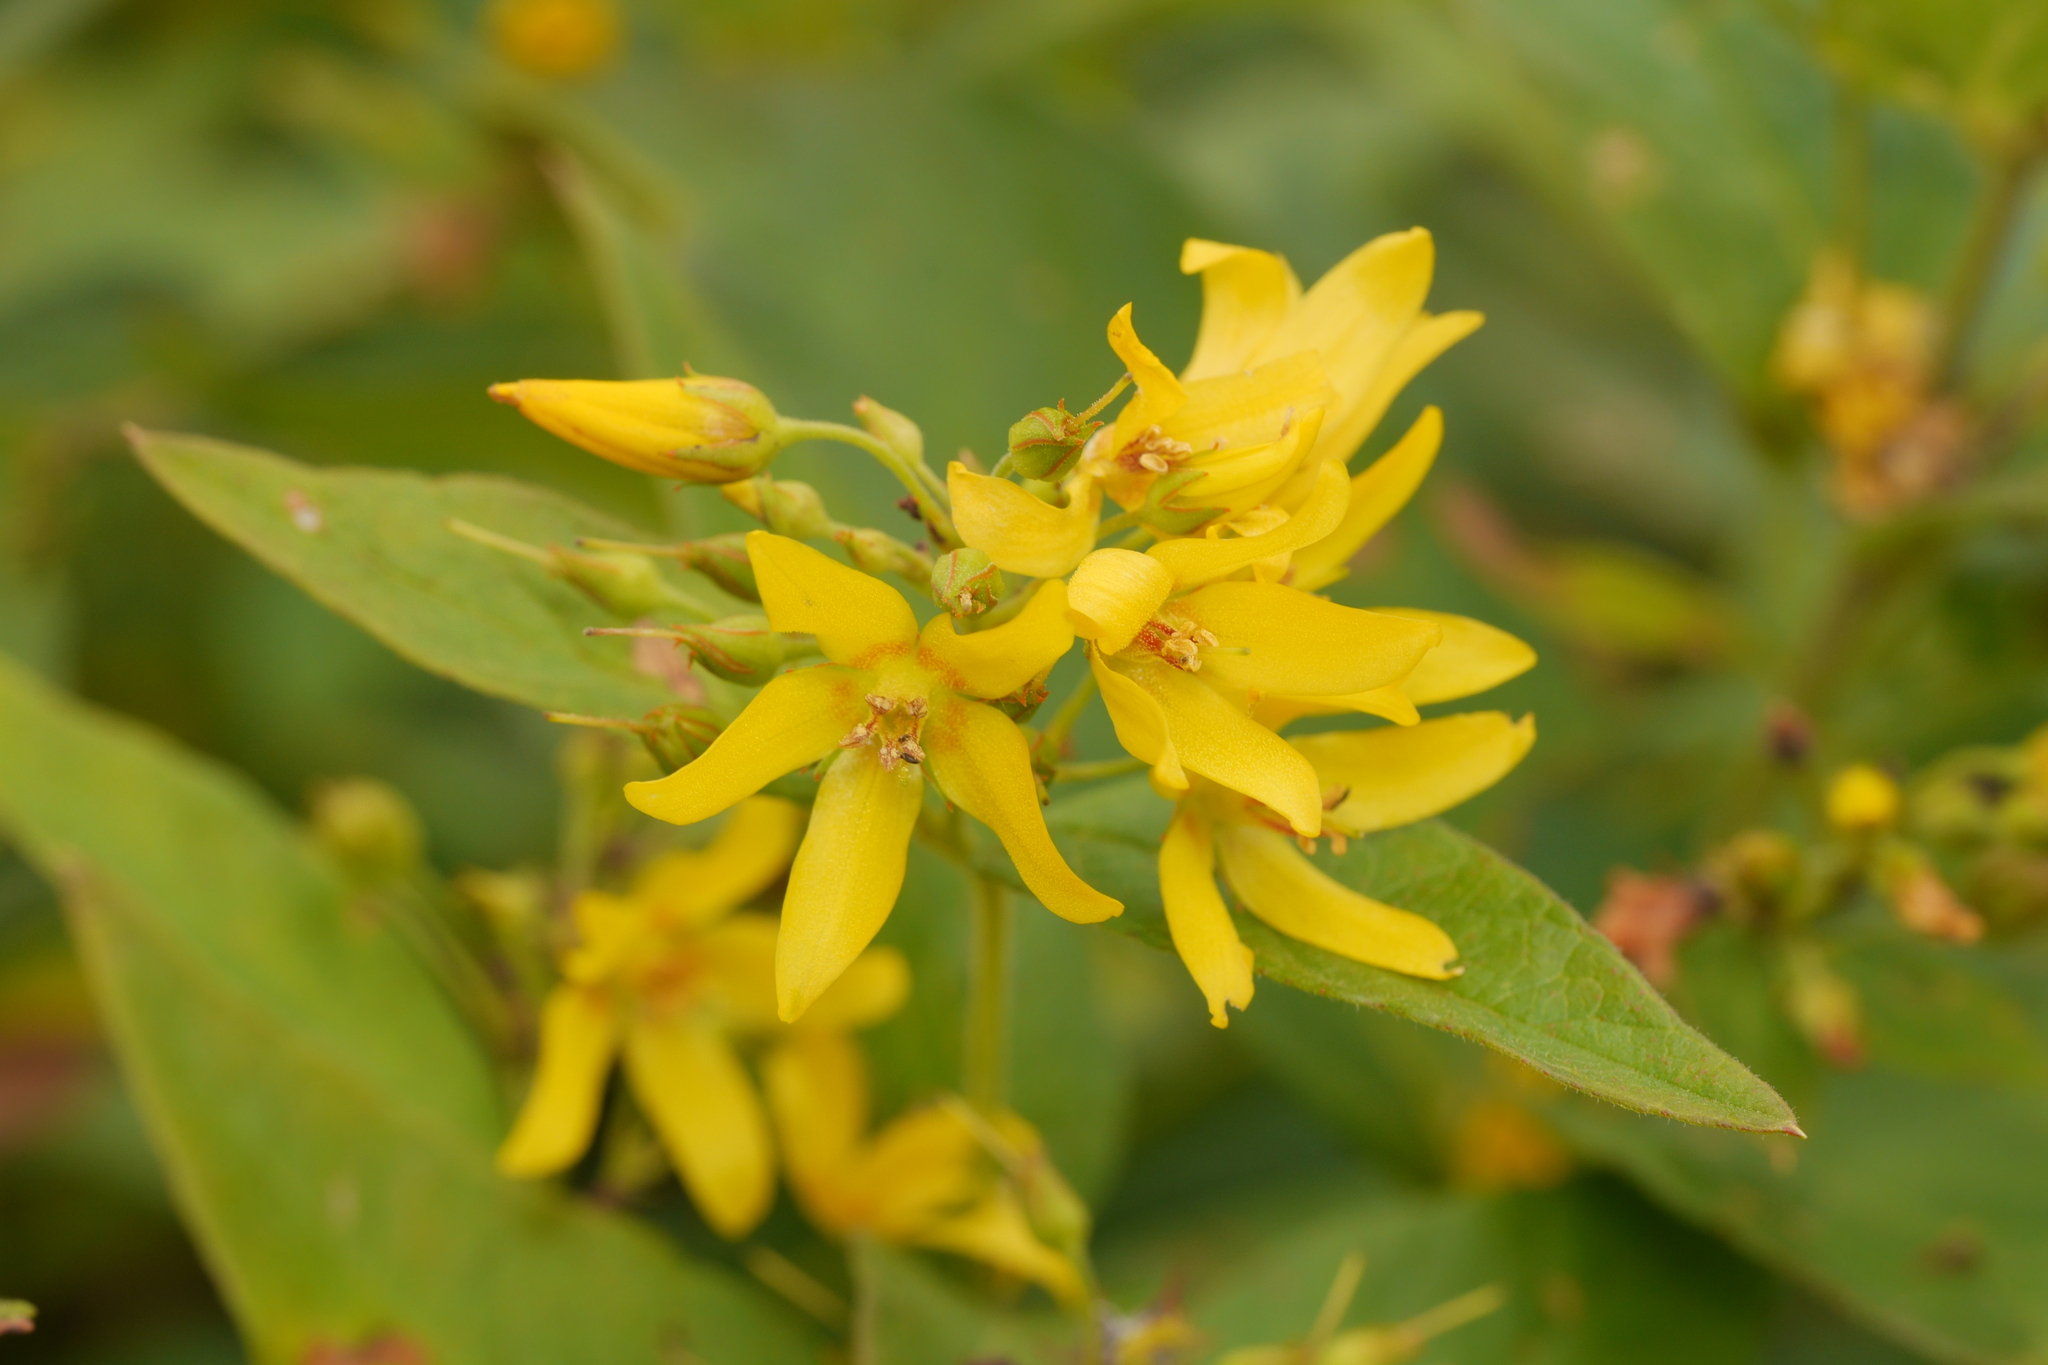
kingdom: Plantae
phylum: Tracheophyta
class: Magnoliopsida
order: Ericales
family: Primulaceae
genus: Lysimachia
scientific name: Lysimachia vulgaris
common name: Yellow loosestrife
